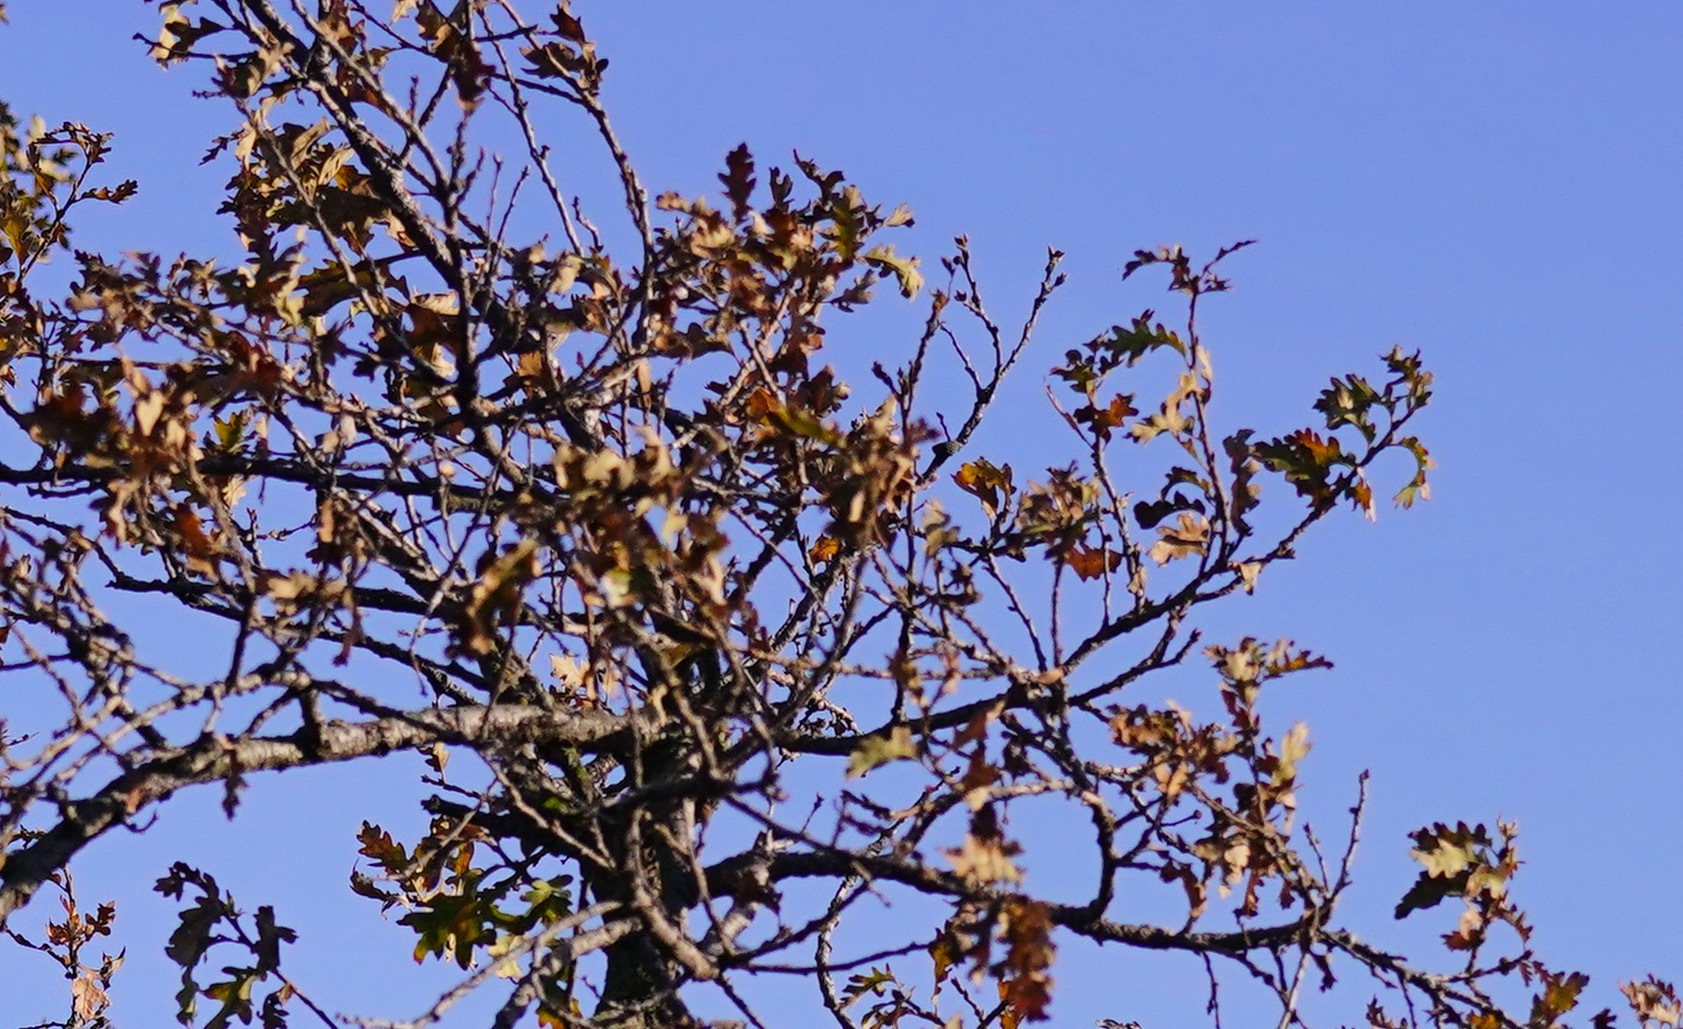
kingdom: Plantae
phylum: Tracheophyta
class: Magnoliopsida
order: Fagales
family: Fagaceae
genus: Quercus
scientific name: Quercus lobata
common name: Valley oak
